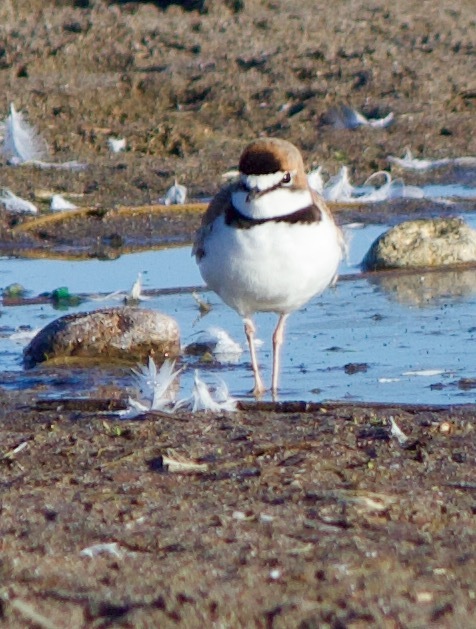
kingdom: Animalia
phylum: Chordata
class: Aves
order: Charadriiformes
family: Charadriidae
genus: Anarhynchus
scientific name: Anarhynchus
